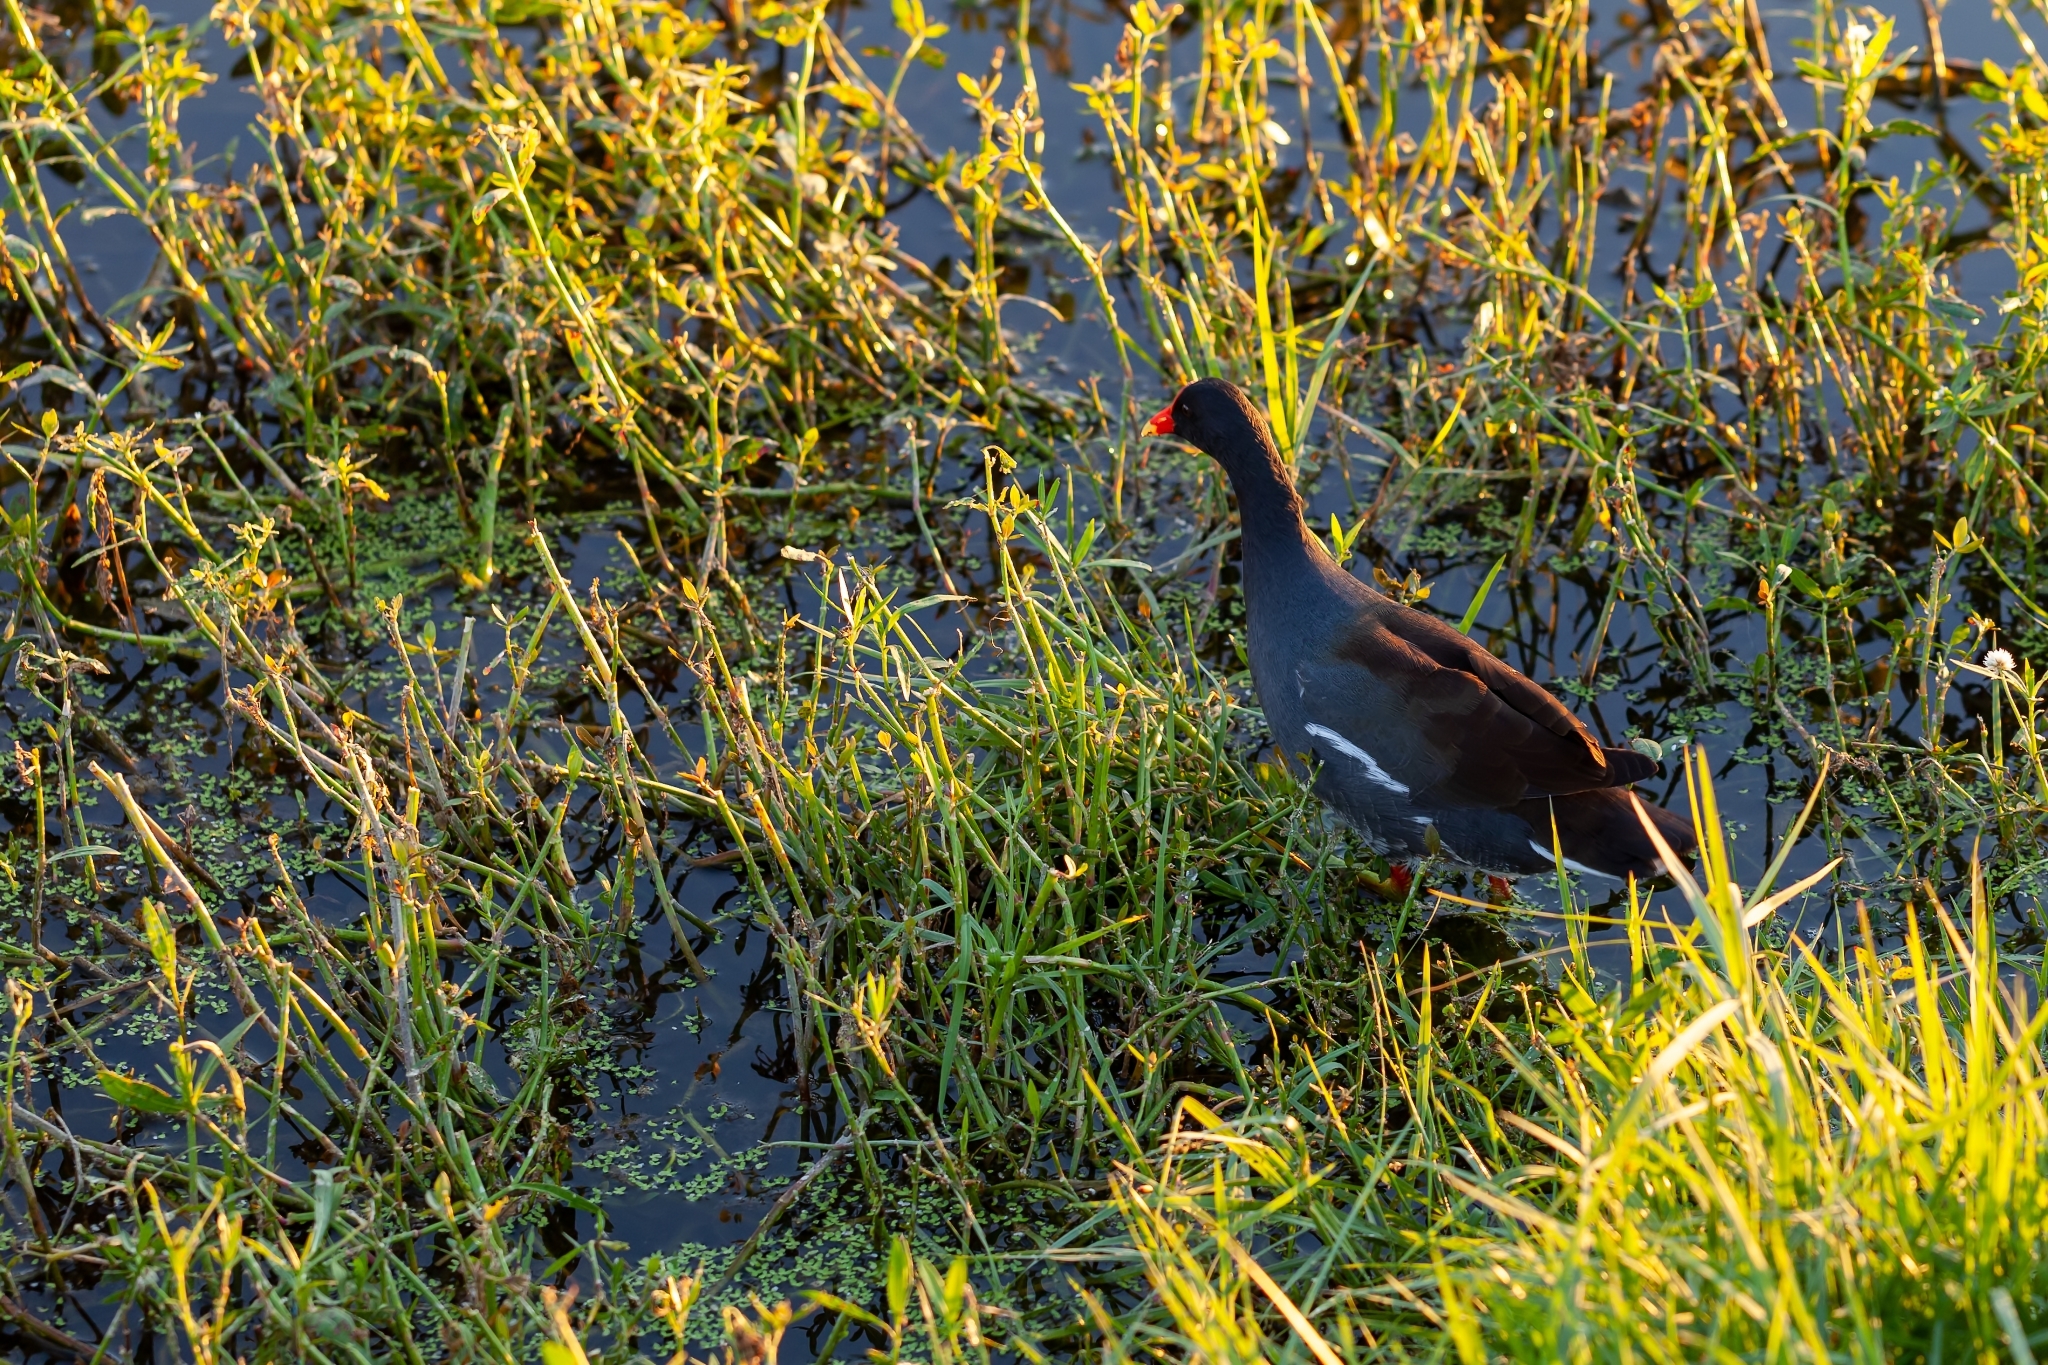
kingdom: Animalia
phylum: Chordata
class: Aves
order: Gruiformes
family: Rallidae
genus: Gallinula
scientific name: Gallinula chloropus
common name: Common moorhen
